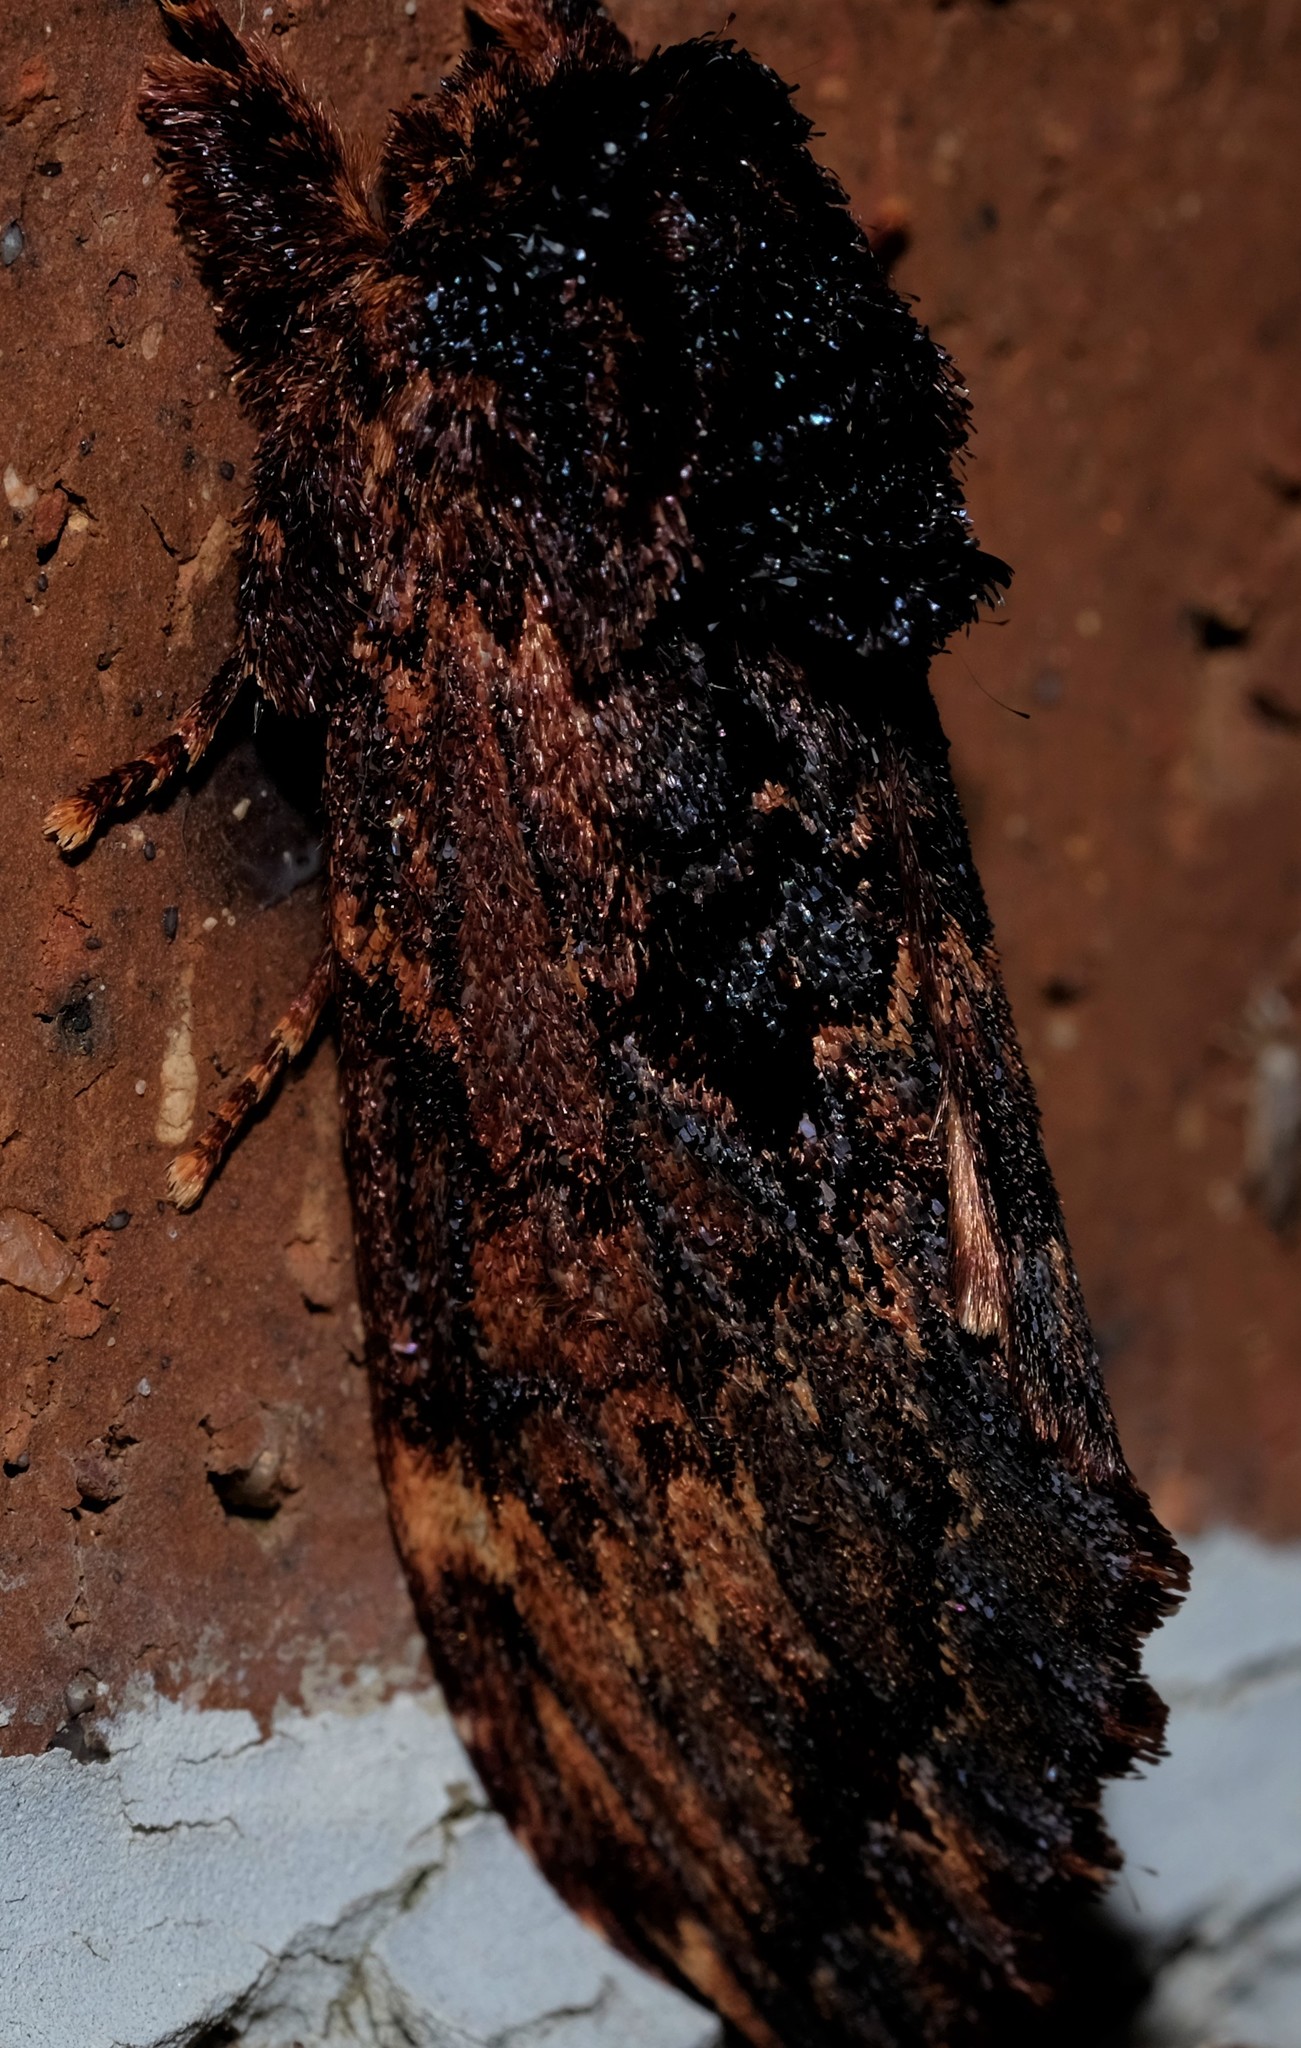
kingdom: Animalia
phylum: Arthropoda
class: Insecta
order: Lepidoptera
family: Notodontidae
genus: Sorama
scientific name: Sorama bicolor
